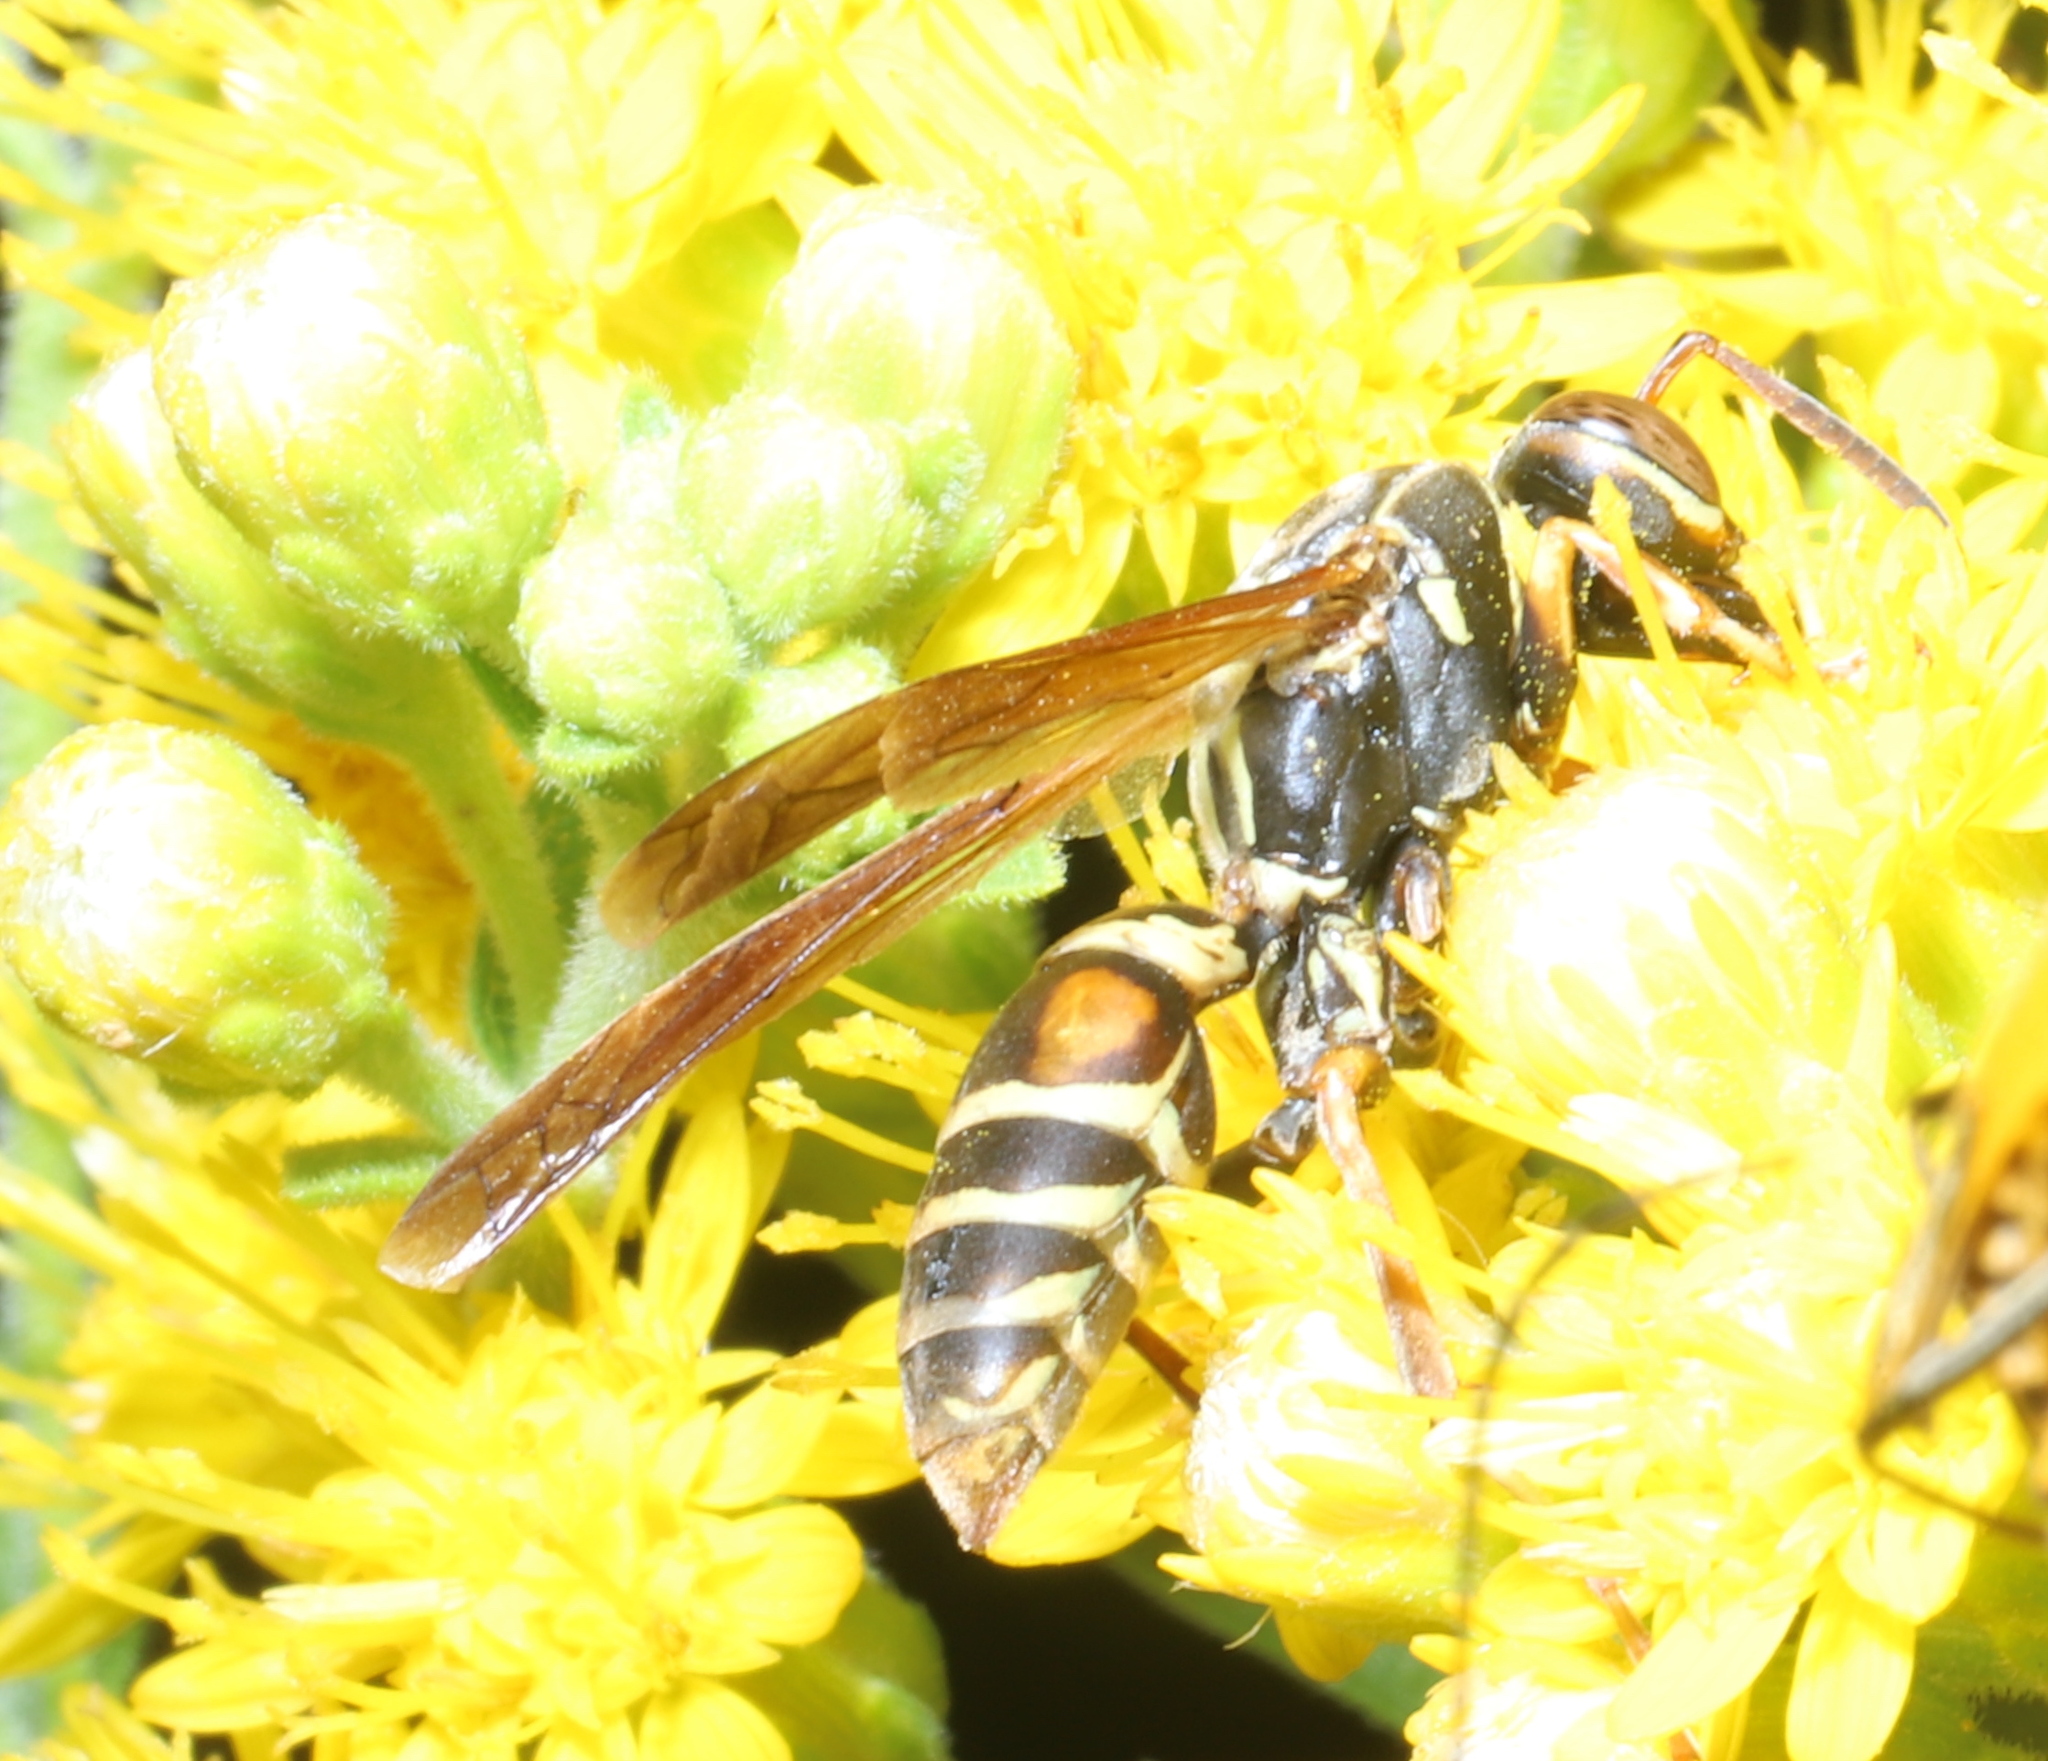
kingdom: Animalia
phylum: Arthropoda
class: Insecta
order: Hymenoptera
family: Eumenidae
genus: Polistes
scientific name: Polistes fuscatus
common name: Dark paper wasp
